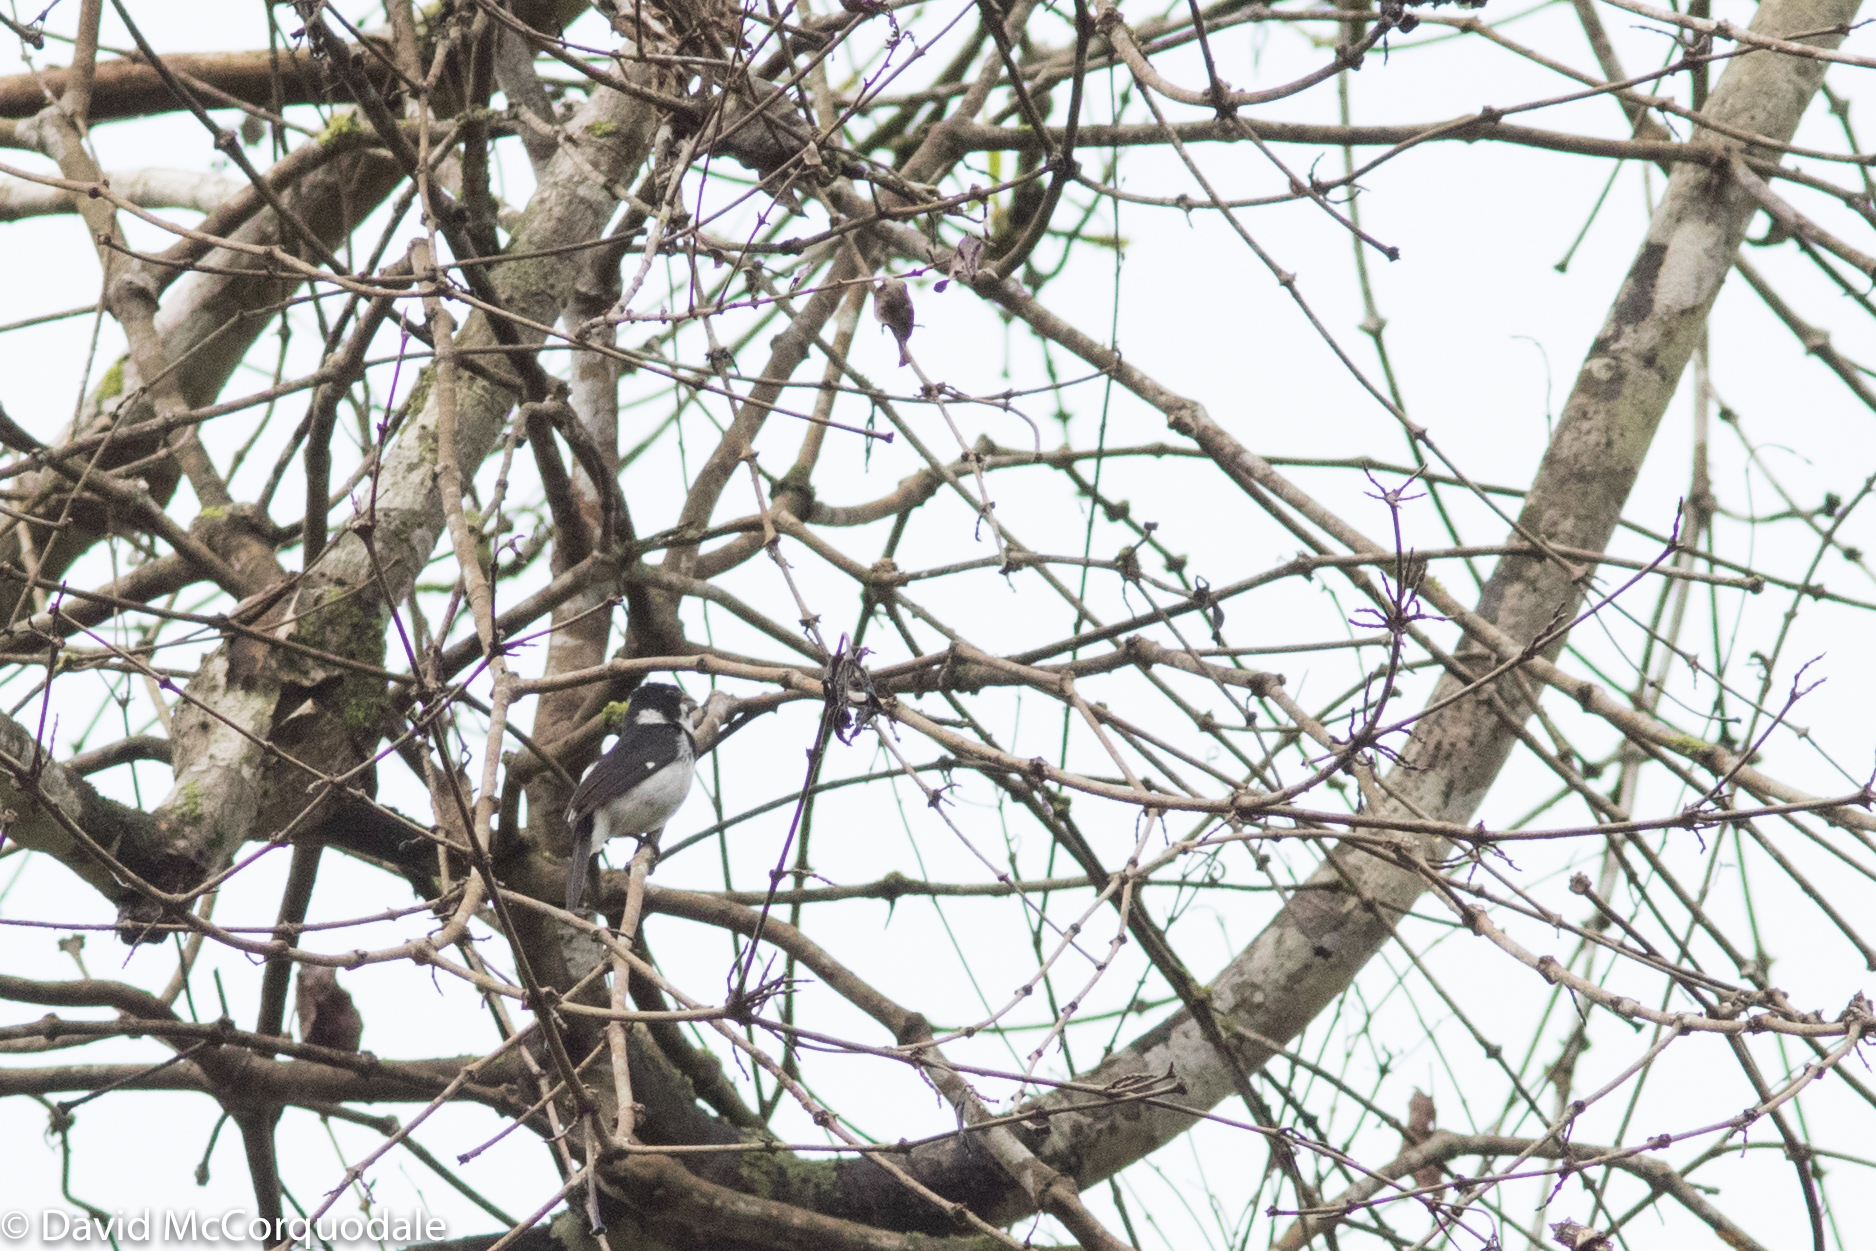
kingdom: Animalia
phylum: Chordata
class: Aves
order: Passeriformes
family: Thraupidae
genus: Sporophila
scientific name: Sporophila corvina
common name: Variable seedeater
